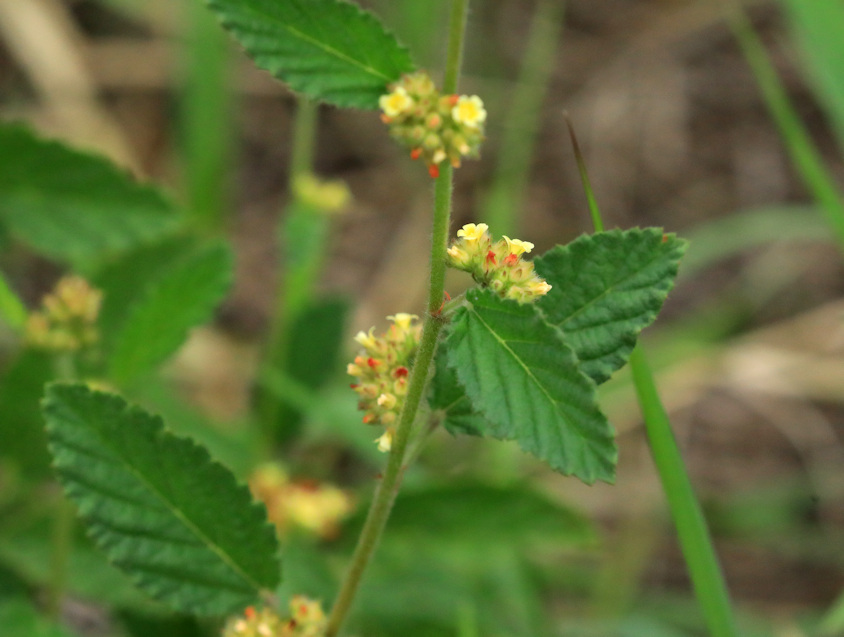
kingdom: Plantae
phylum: Tracheophyta
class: Magnoliopsida
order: Malvales
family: Malvaceae
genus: Waltheria
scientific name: Waltheria indica
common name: Leather-coat
